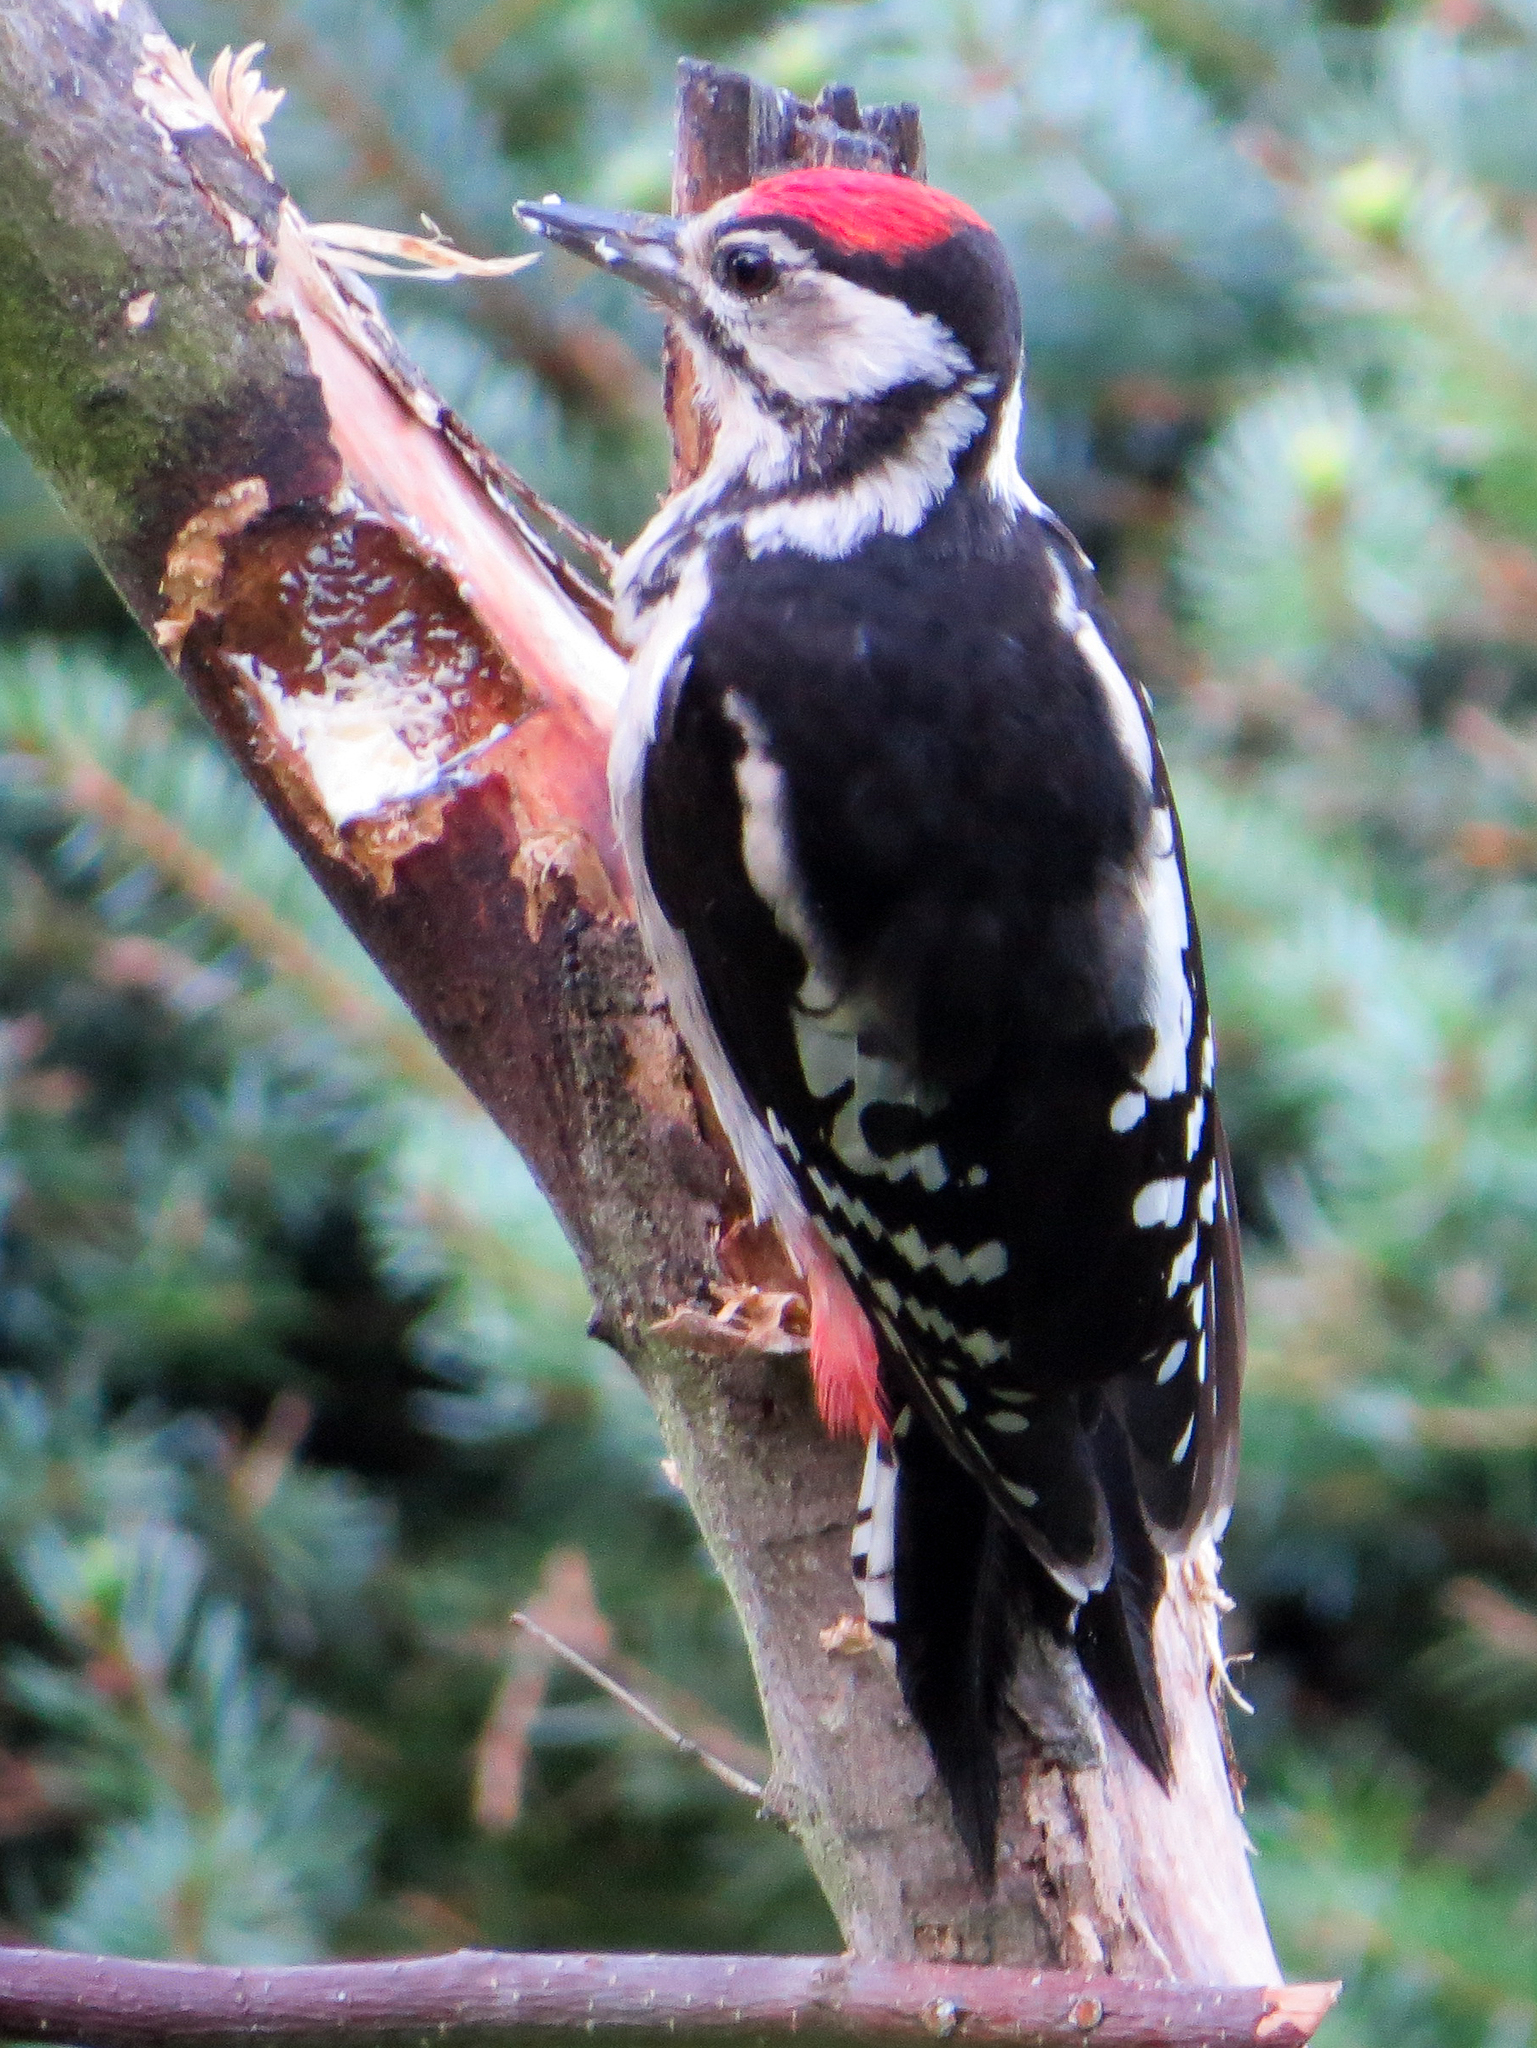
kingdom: Animalia
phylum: Chordata
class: Aves
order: Piciformes
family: Picidae
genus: Dendrocopos
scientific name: Dendrocopos major
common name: Great spotted woodpecker
